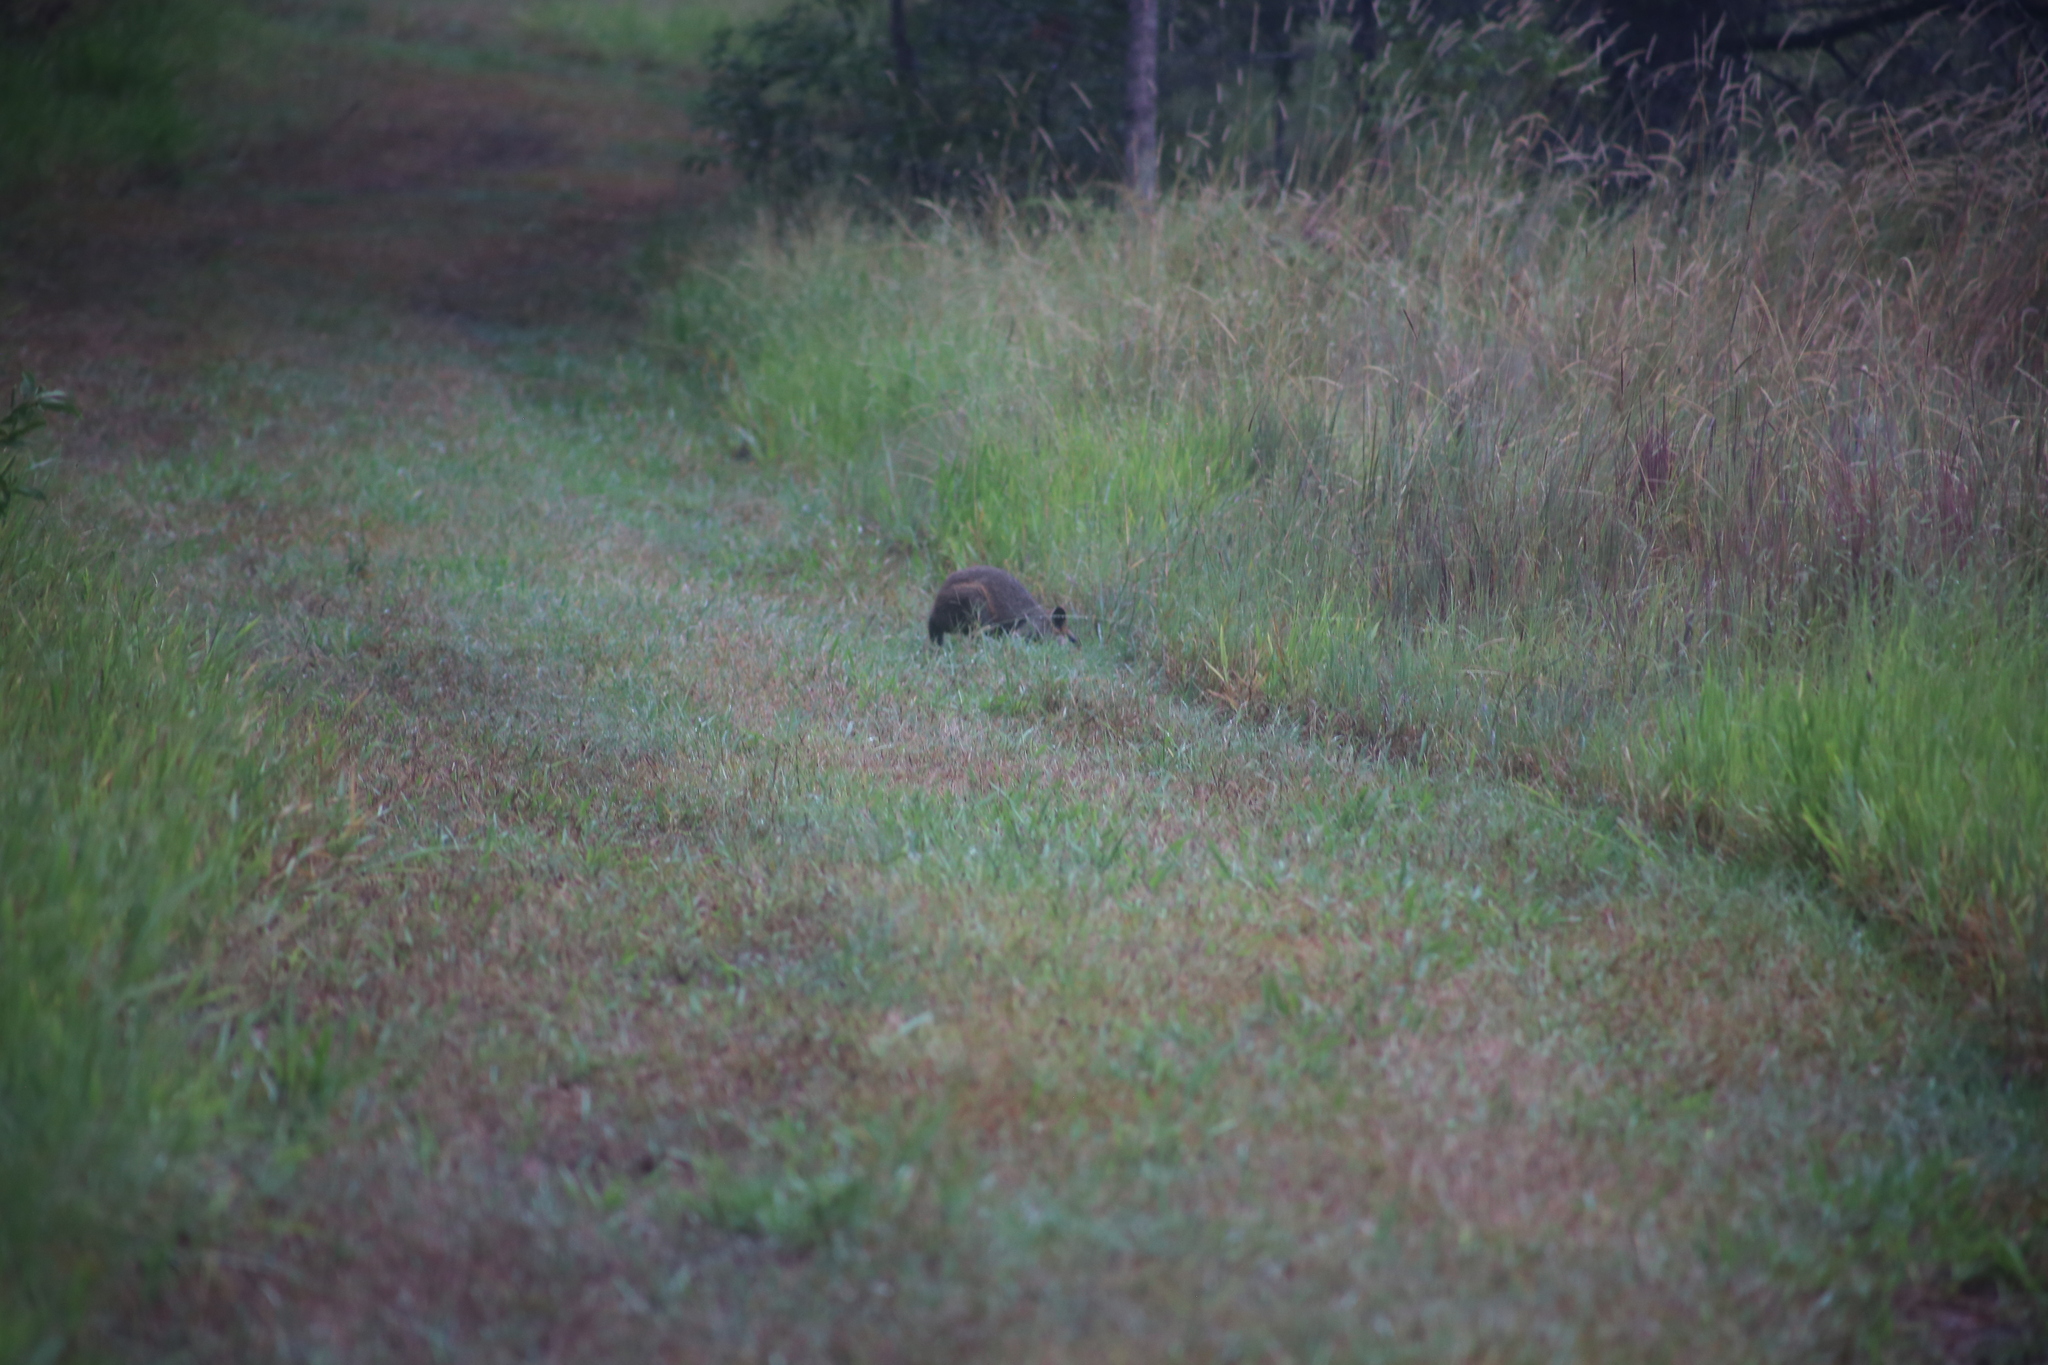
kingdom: Animalia
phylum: Chordata
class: Mammalia
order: Diprotodontia
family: Macropodidae
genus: Wallabia
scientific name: Wallabia bicolor
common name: Swamp wallaby
